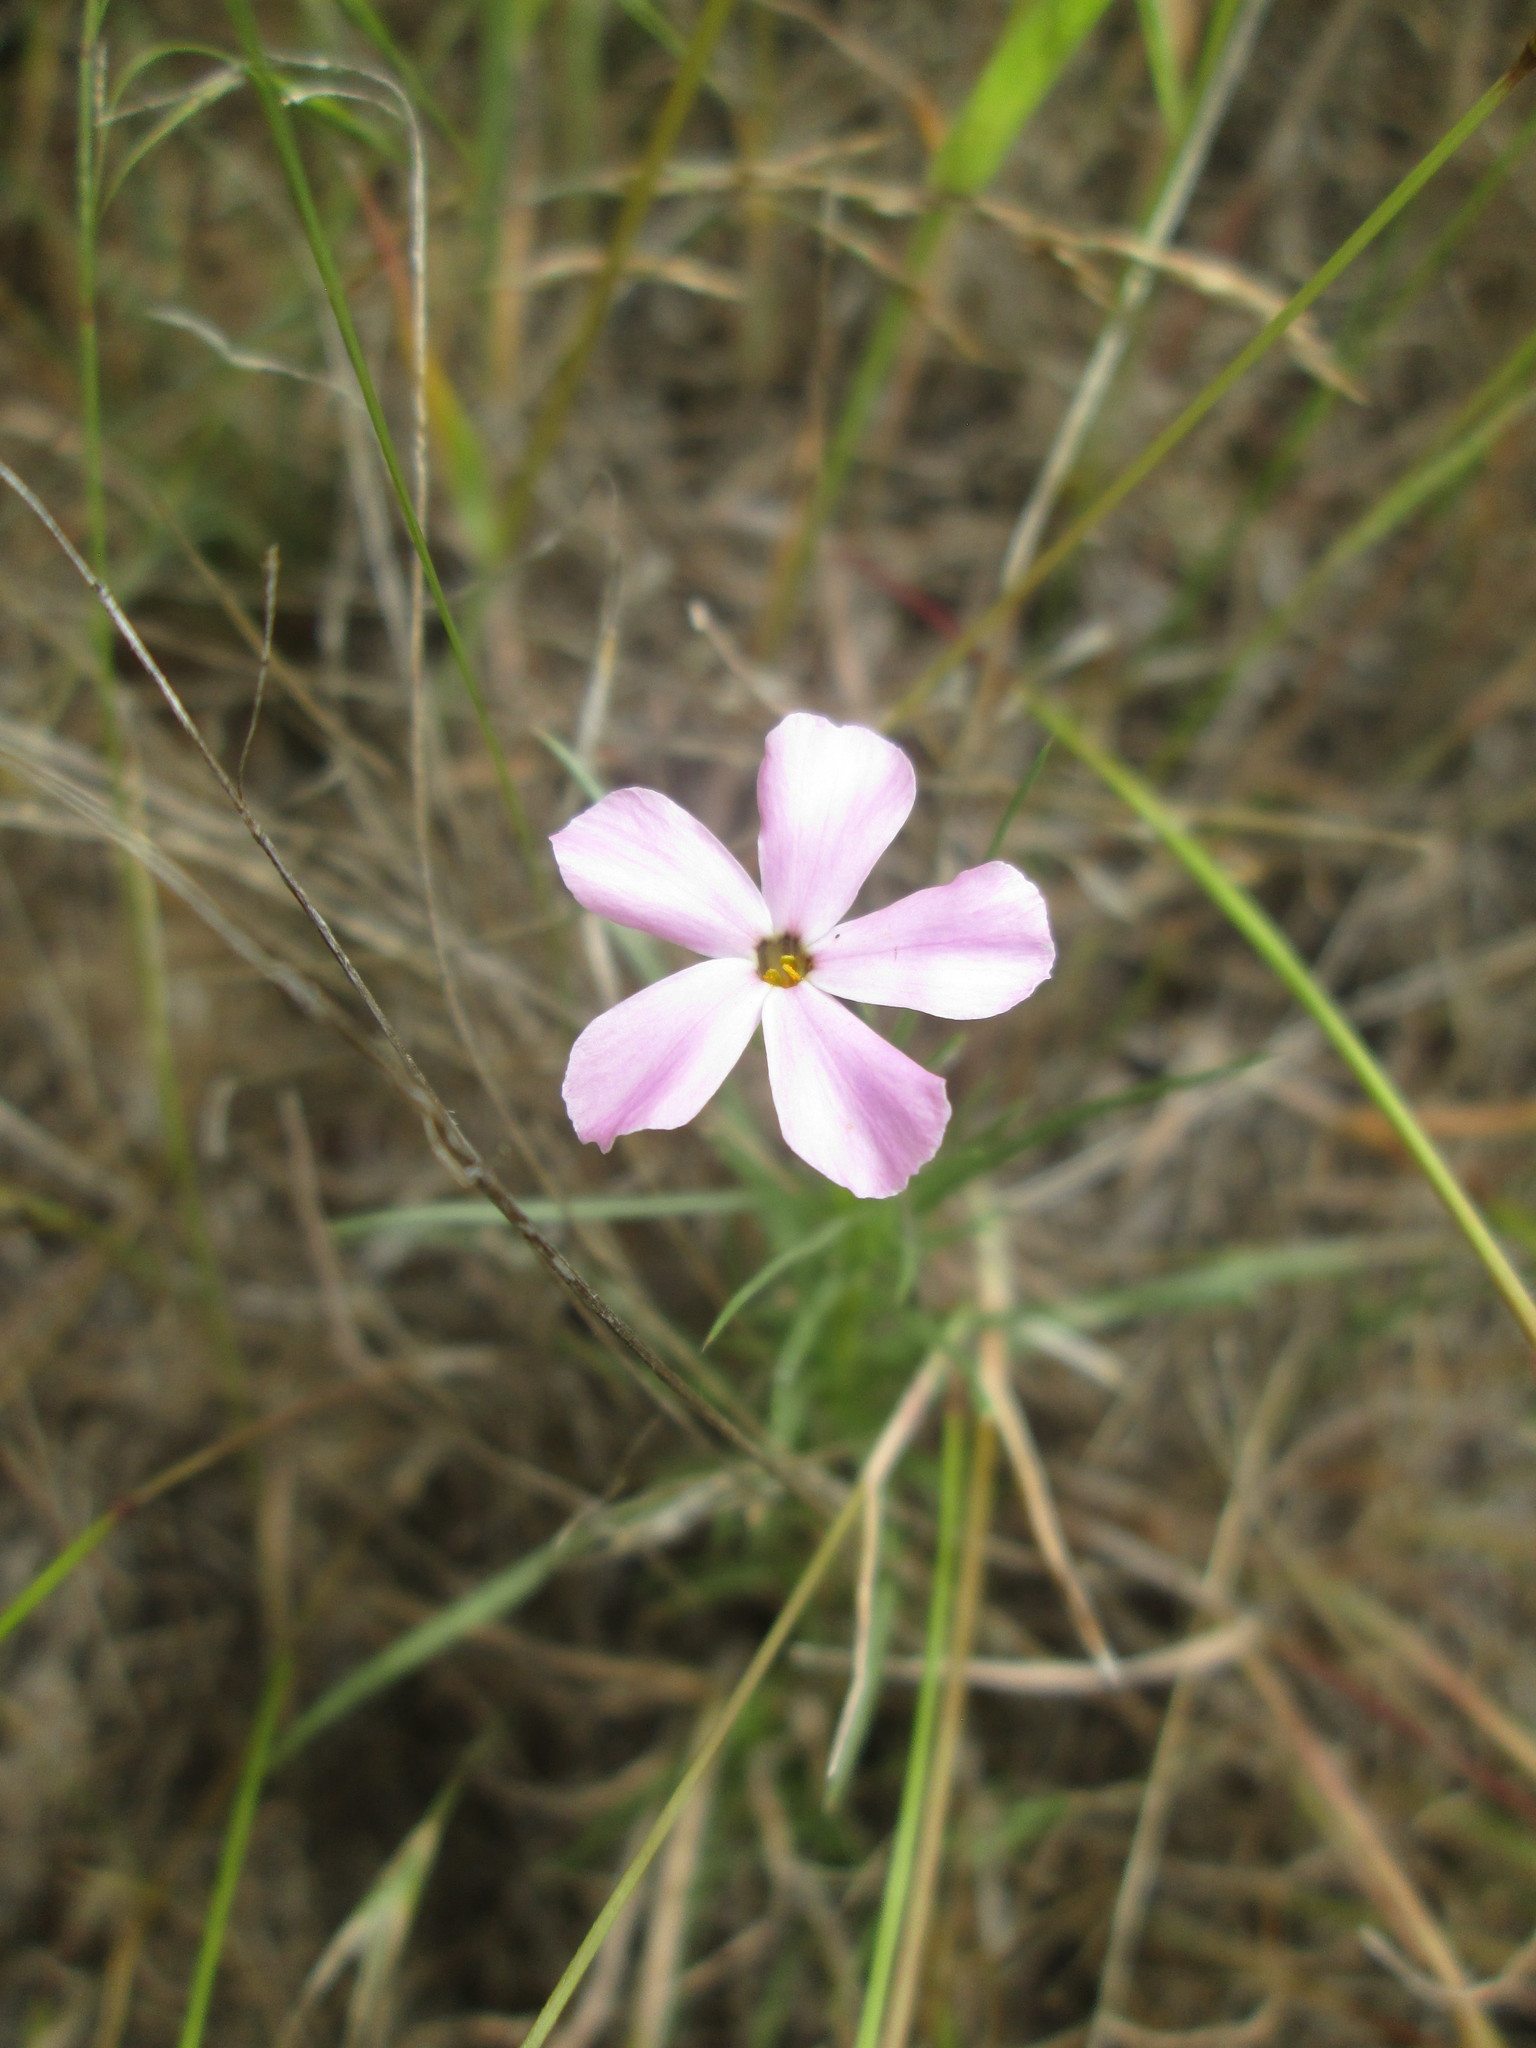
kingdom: Plantae
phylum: Tracheophyta
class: Magnoliopsida
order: Ericales
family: Polemoniaceae
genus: Phlox
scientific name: Phlox longifolia
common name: Longleaf phlox
